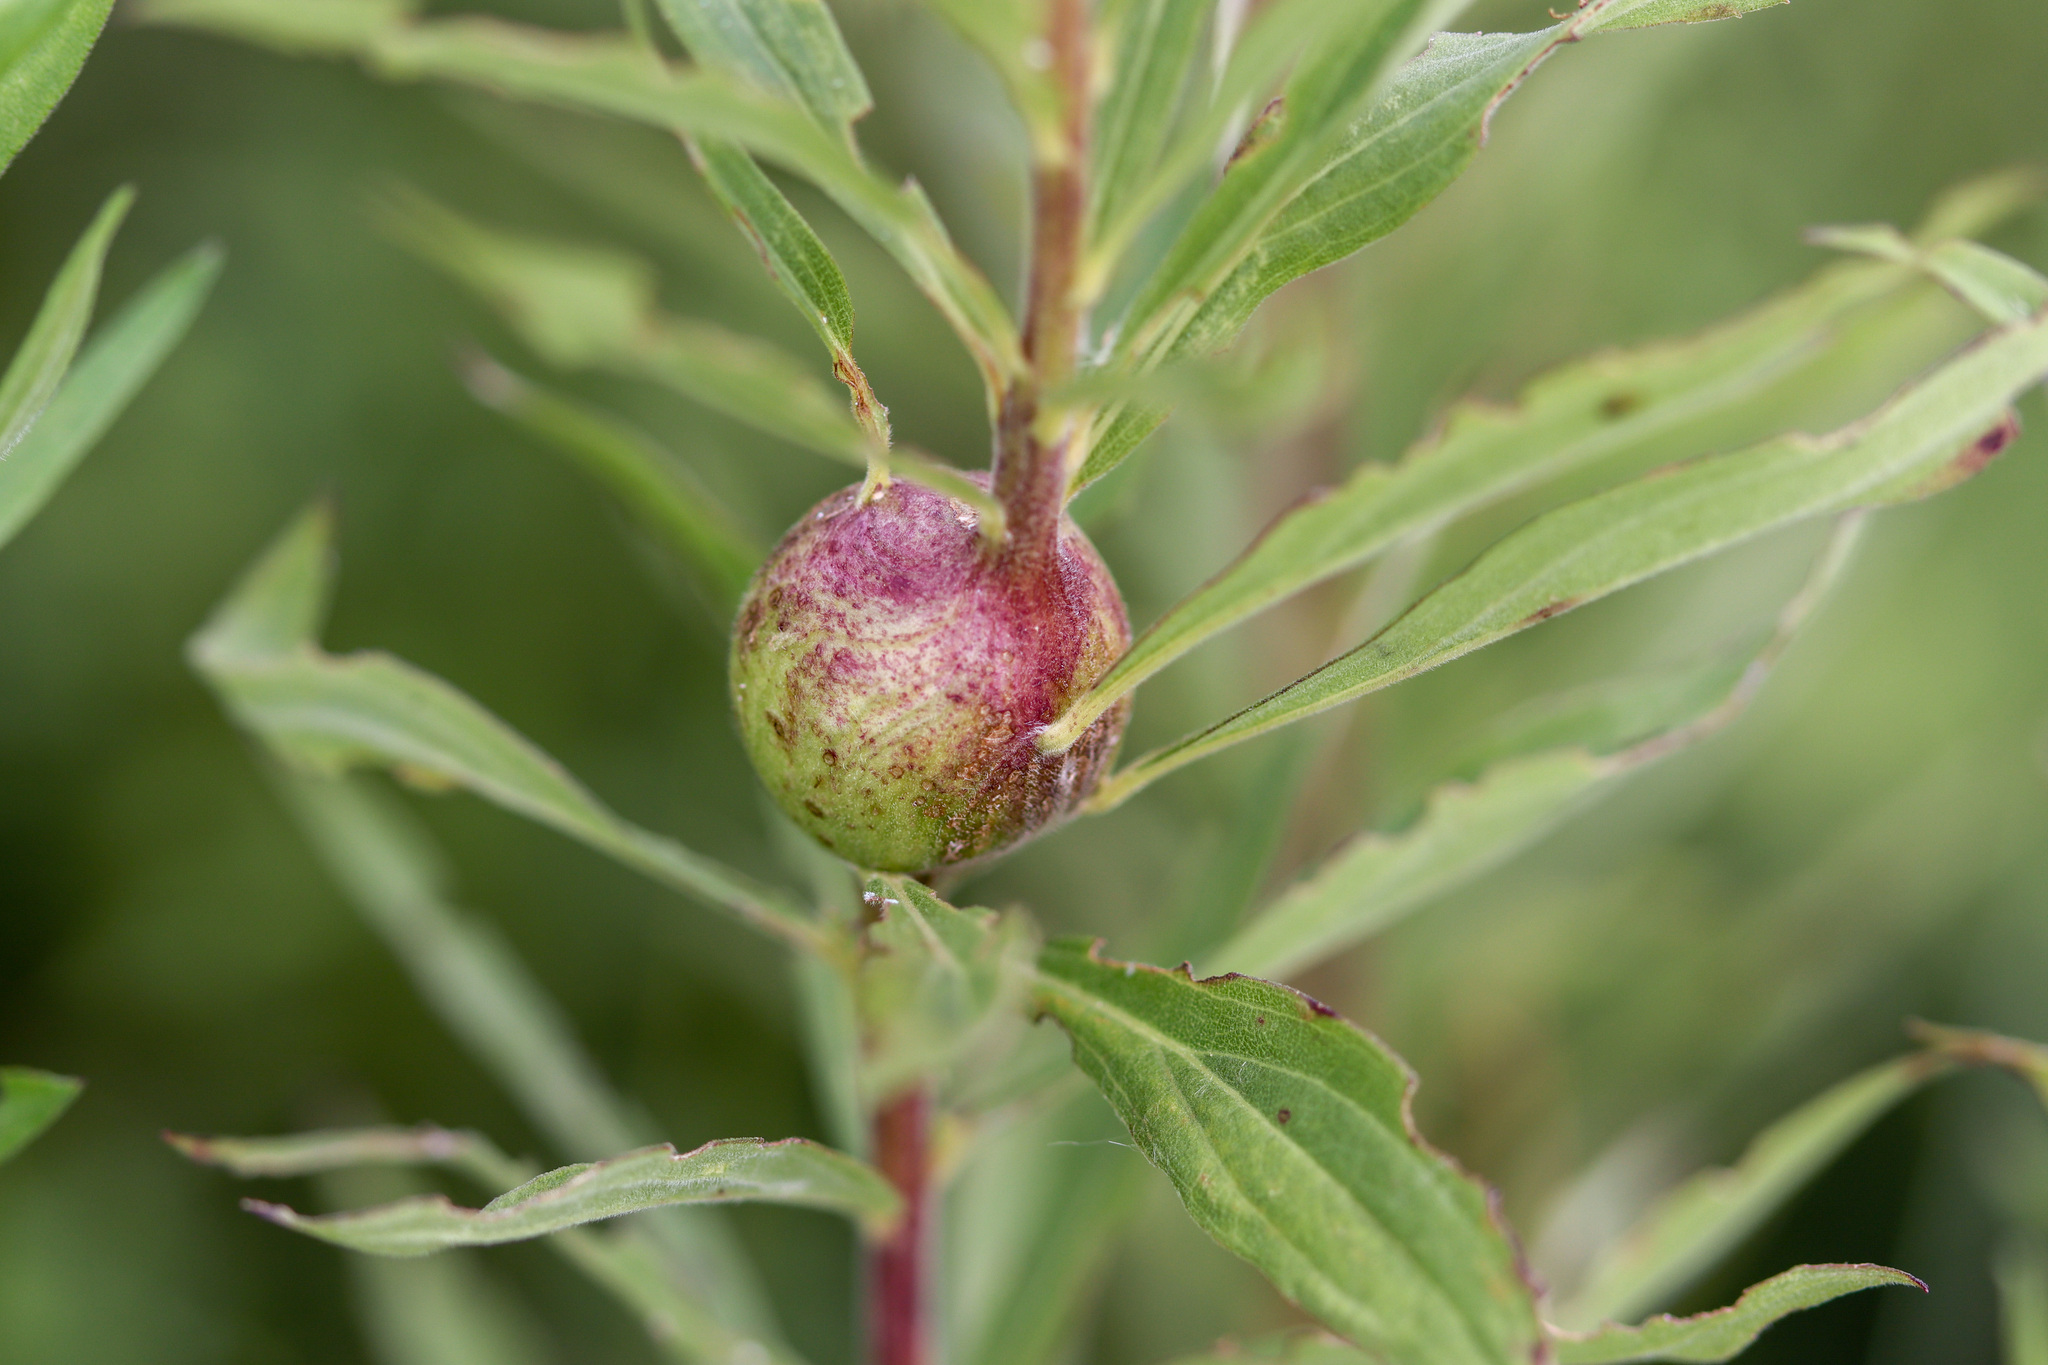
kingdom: Animalia
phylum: Arthropoda
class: Insecta
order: Diptera
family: Tephritidae
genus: Eurosta
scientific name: Eurosta solidaginis
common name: Goldenrod gall fly
